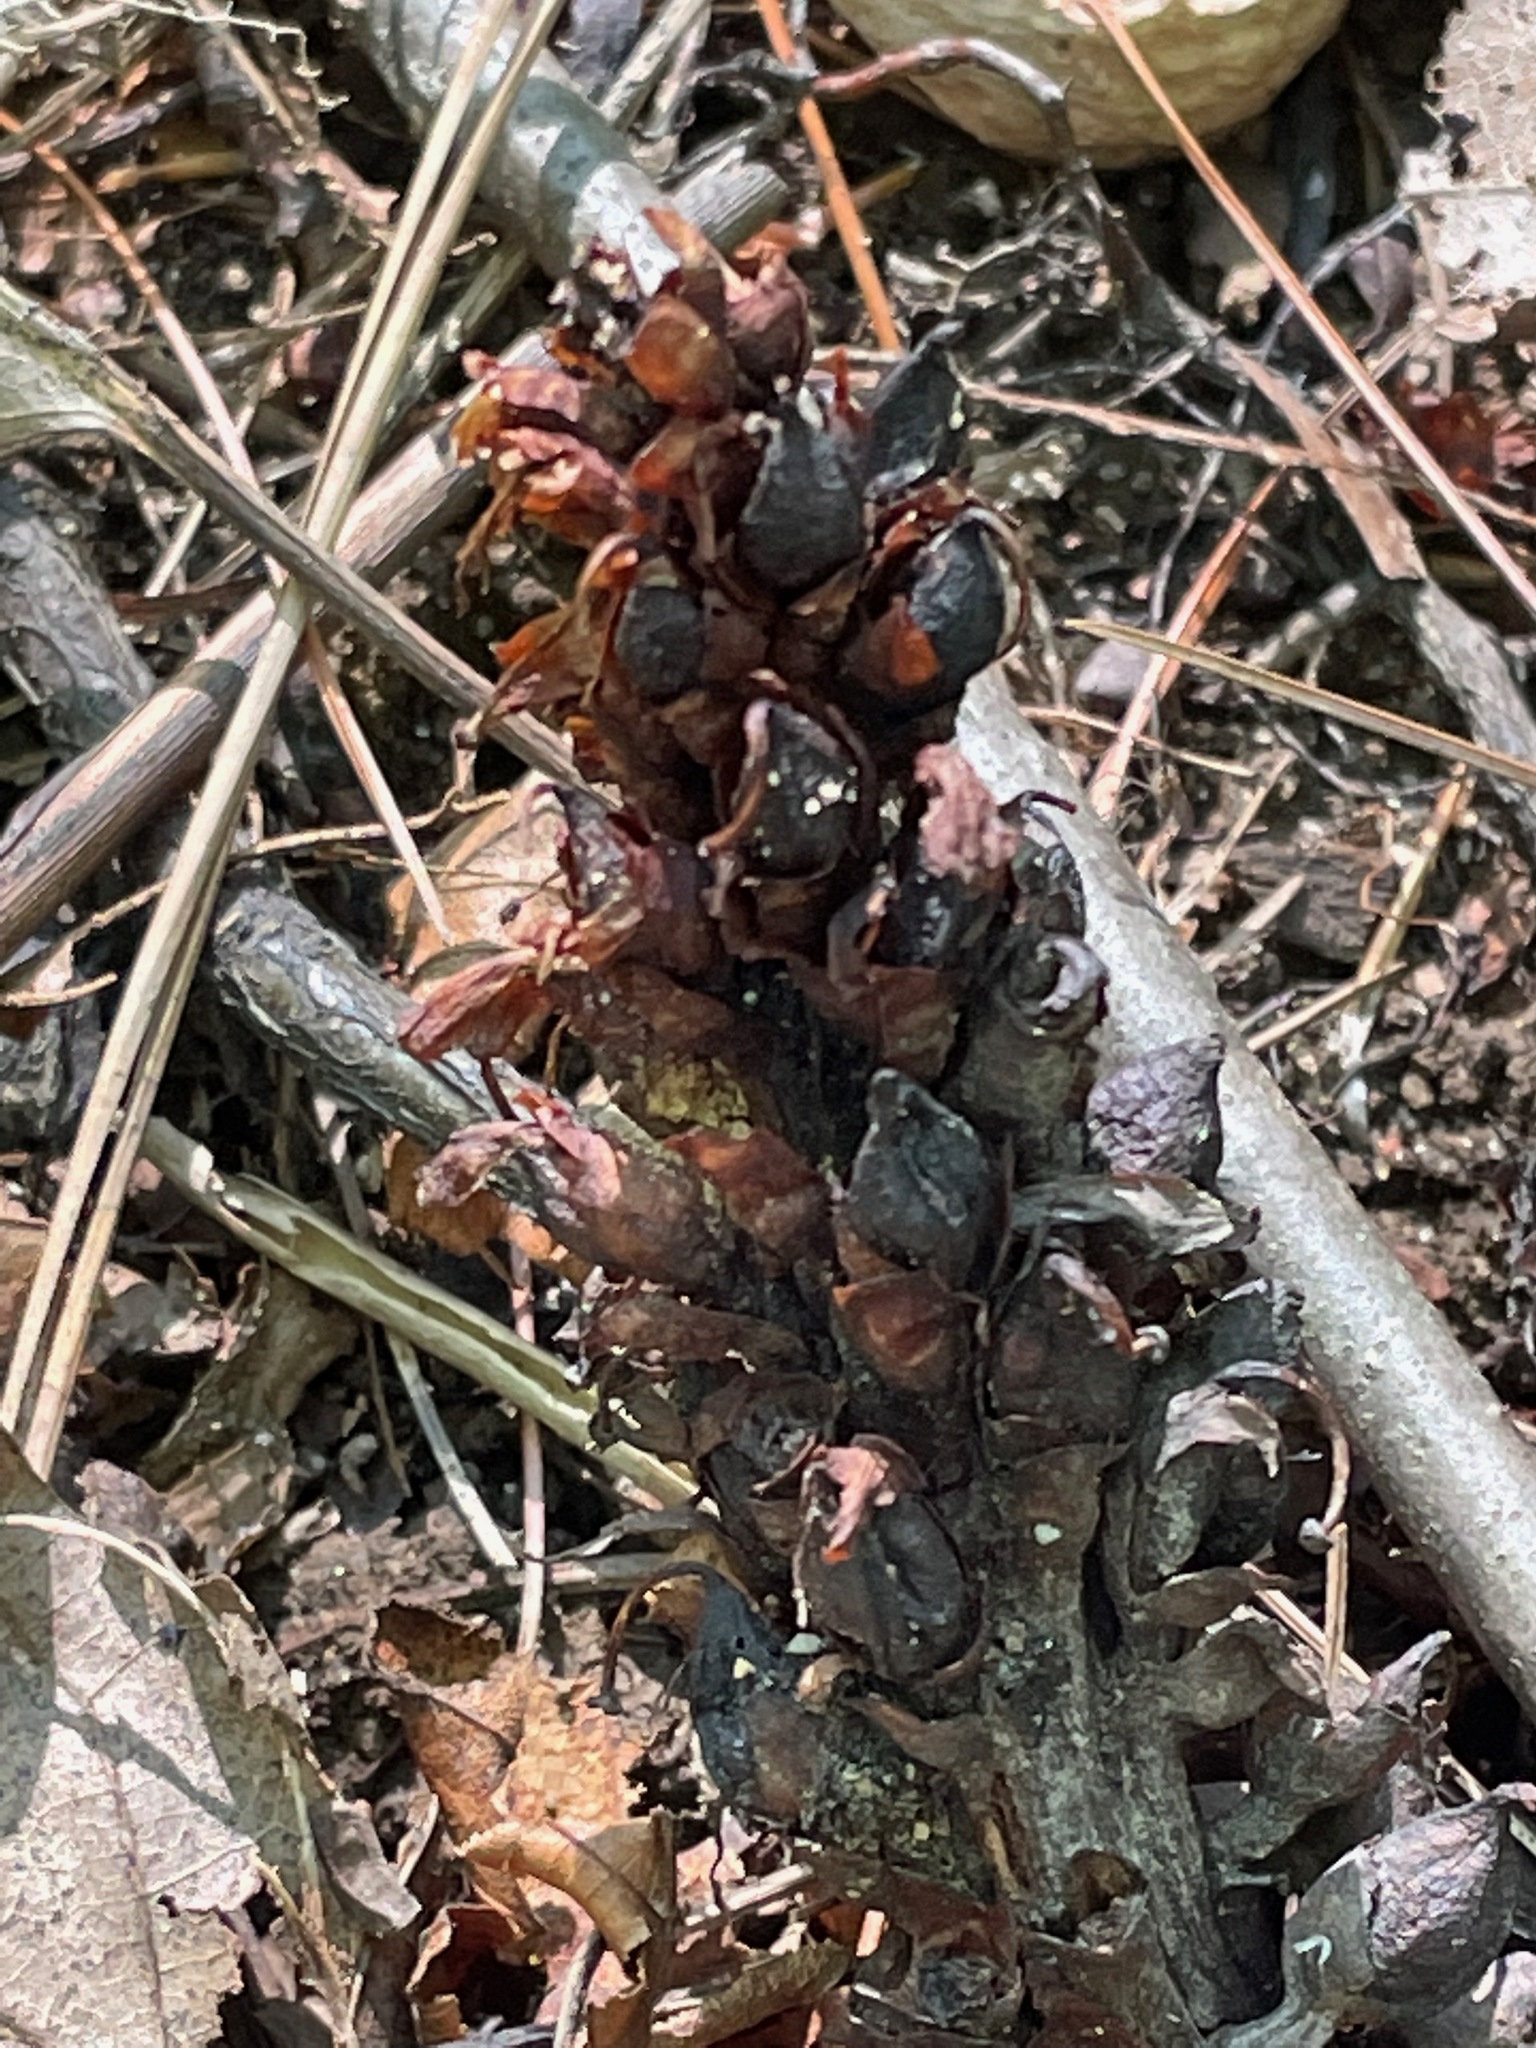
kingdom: Plantae
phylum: Tracheophyta
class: Magnoliopsida
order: Lamiales
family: Orobanchaceae
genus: Conopholis
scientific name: Conopholis americana
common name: American cancer-root
